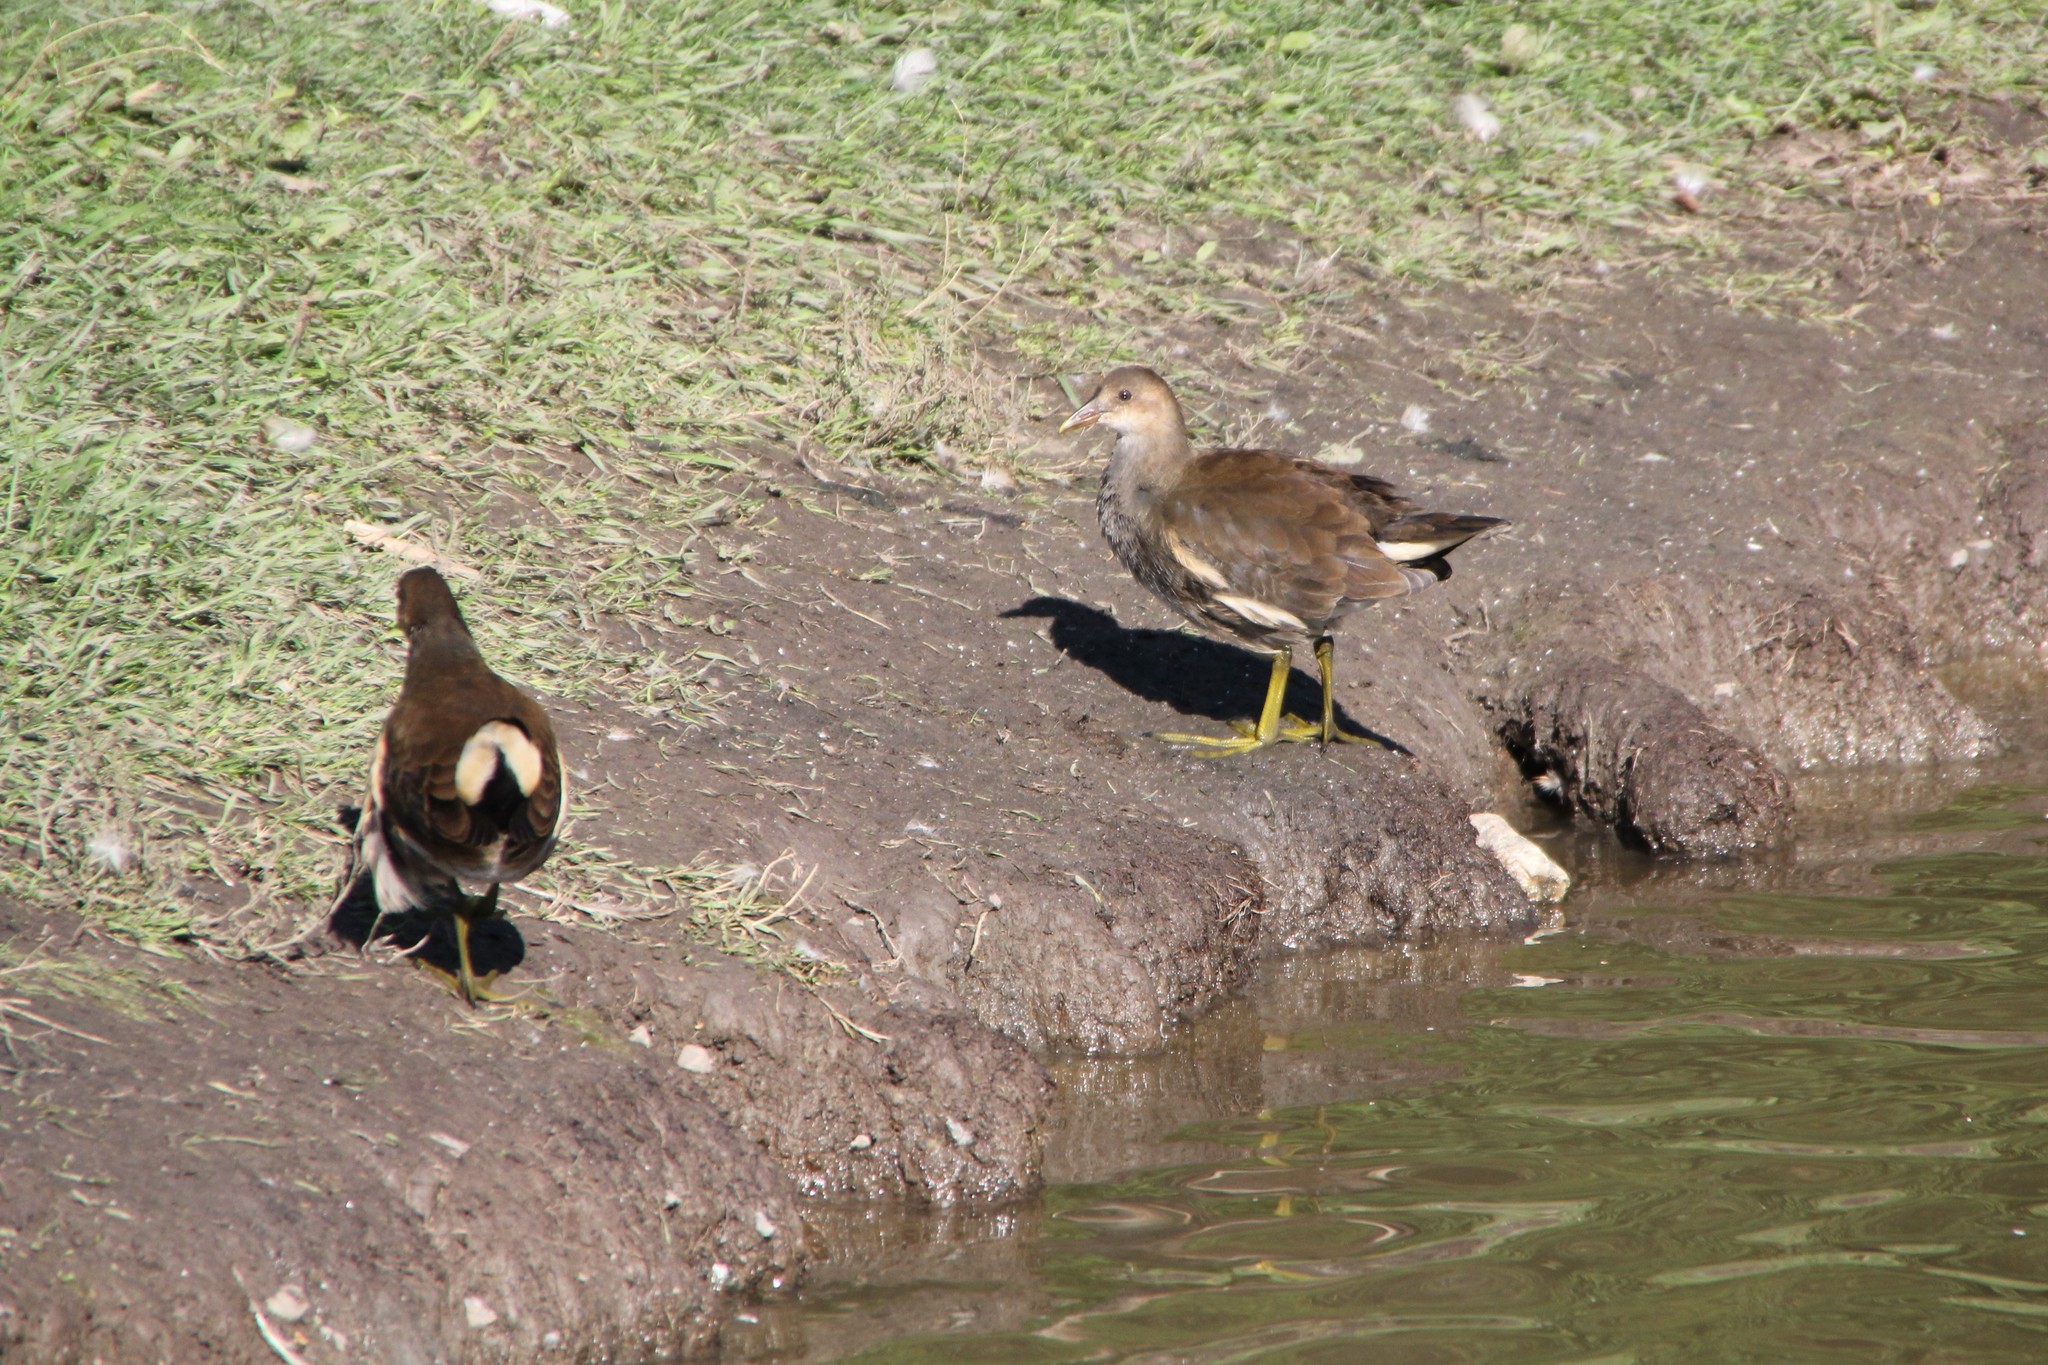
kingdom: Animalia
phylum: Chordata
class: Aves
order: Gruiformes
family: Rallidae
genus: Gallinula
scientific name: Gallinula chloropus
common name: Common moorhen
